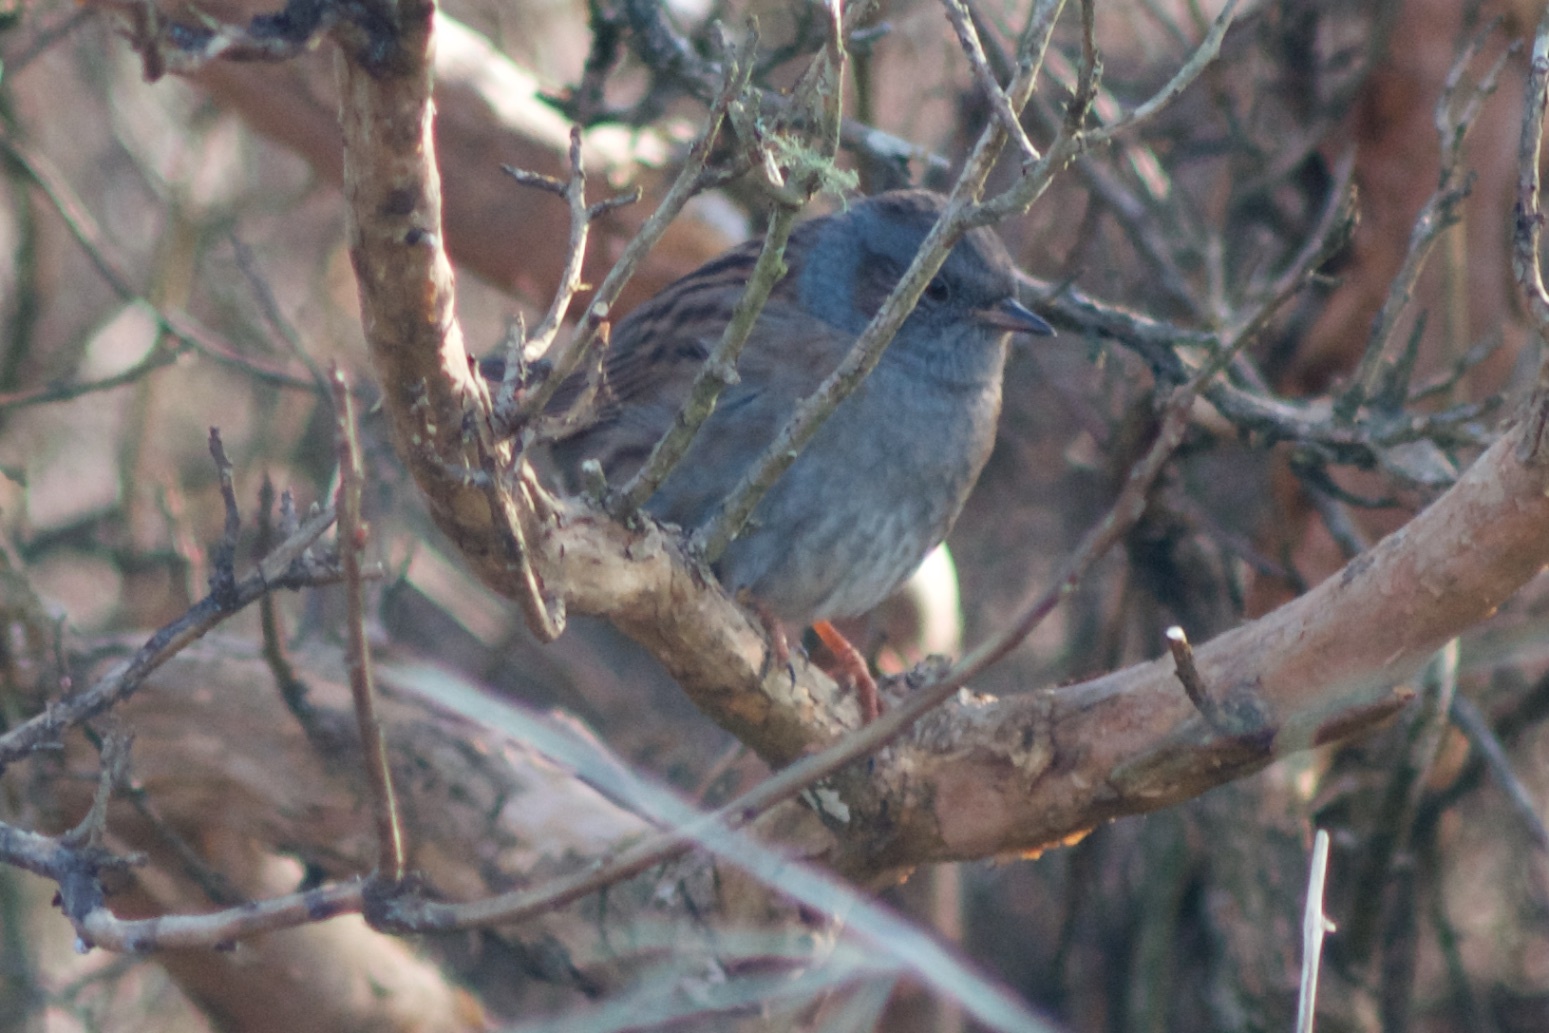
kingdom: Animalia
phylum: Chordata
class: Aves
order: Passeriformes
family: Prunellidae
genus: Prunella
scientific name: Prunella modularis
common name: Dunnock
